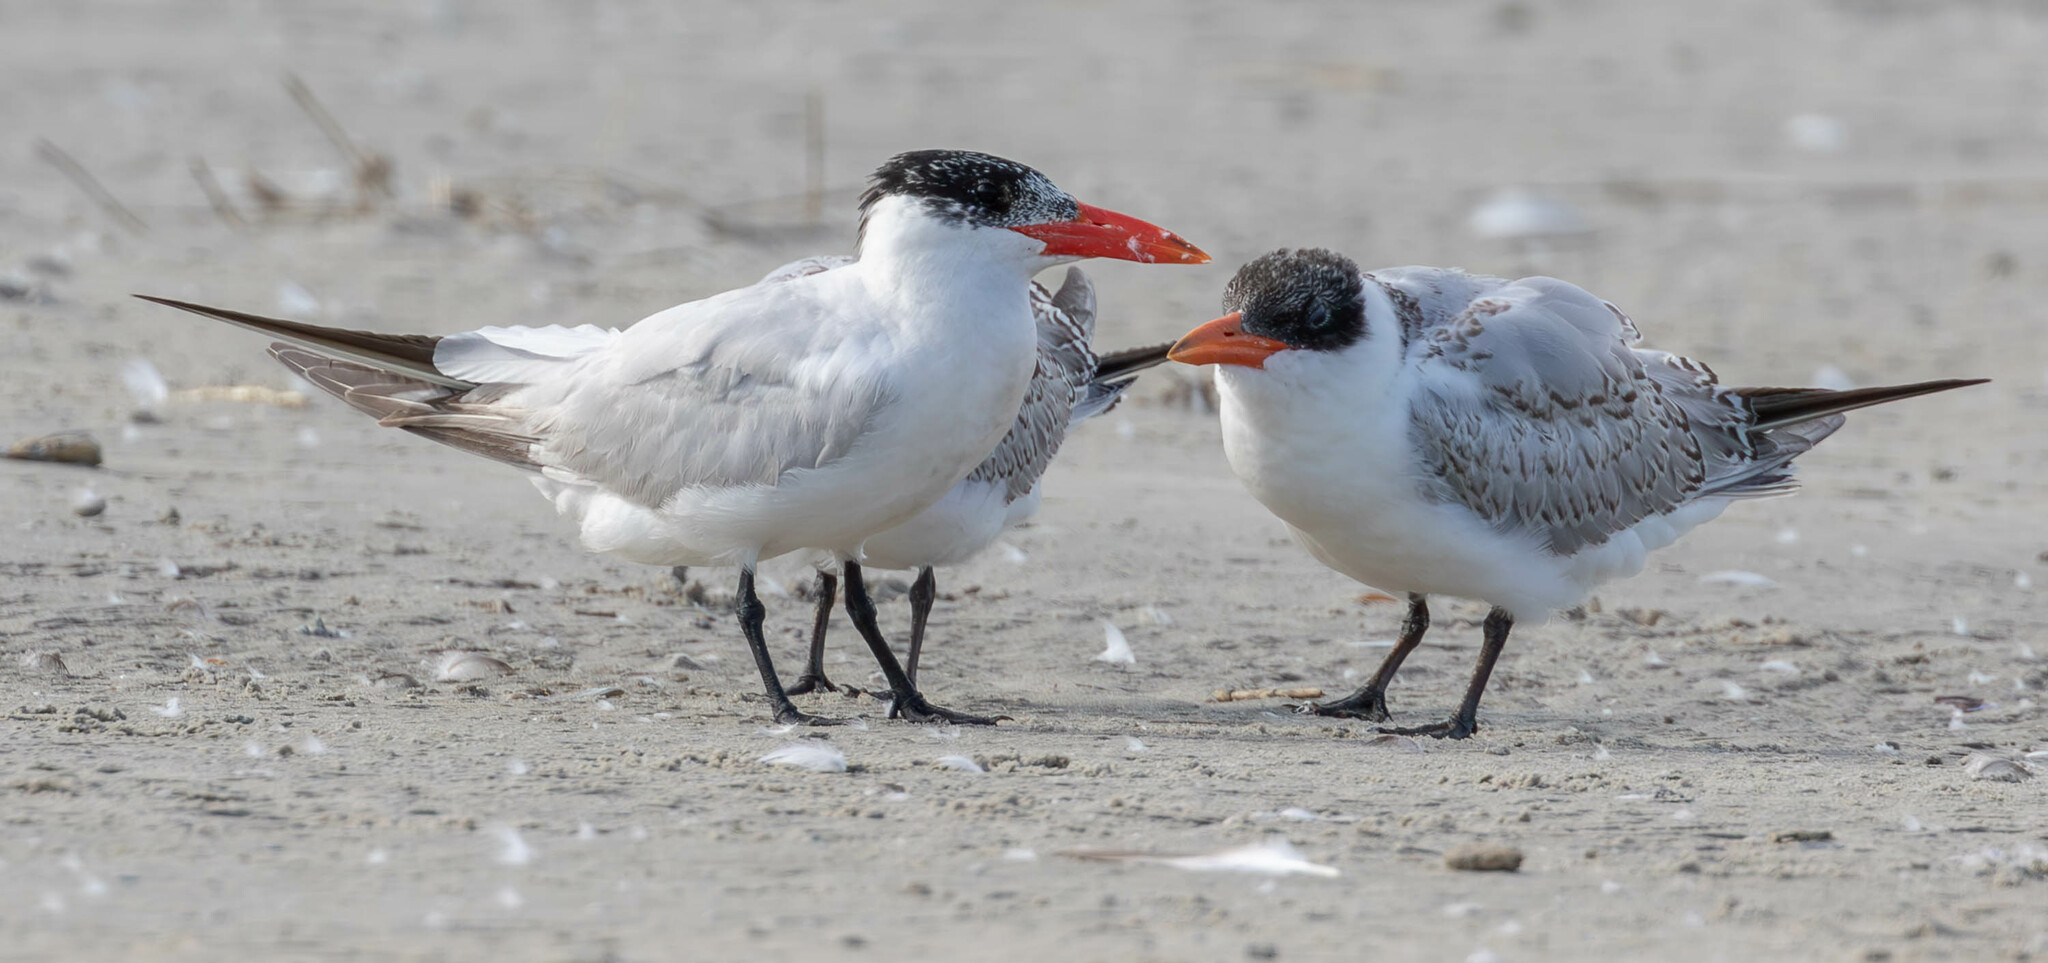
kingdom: Animalia
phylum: Chordata
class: Aves
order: Charadriiformes
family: Laridae
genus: Hydroprogne
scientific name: Hydroprogne caspia
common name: Caspian tern
